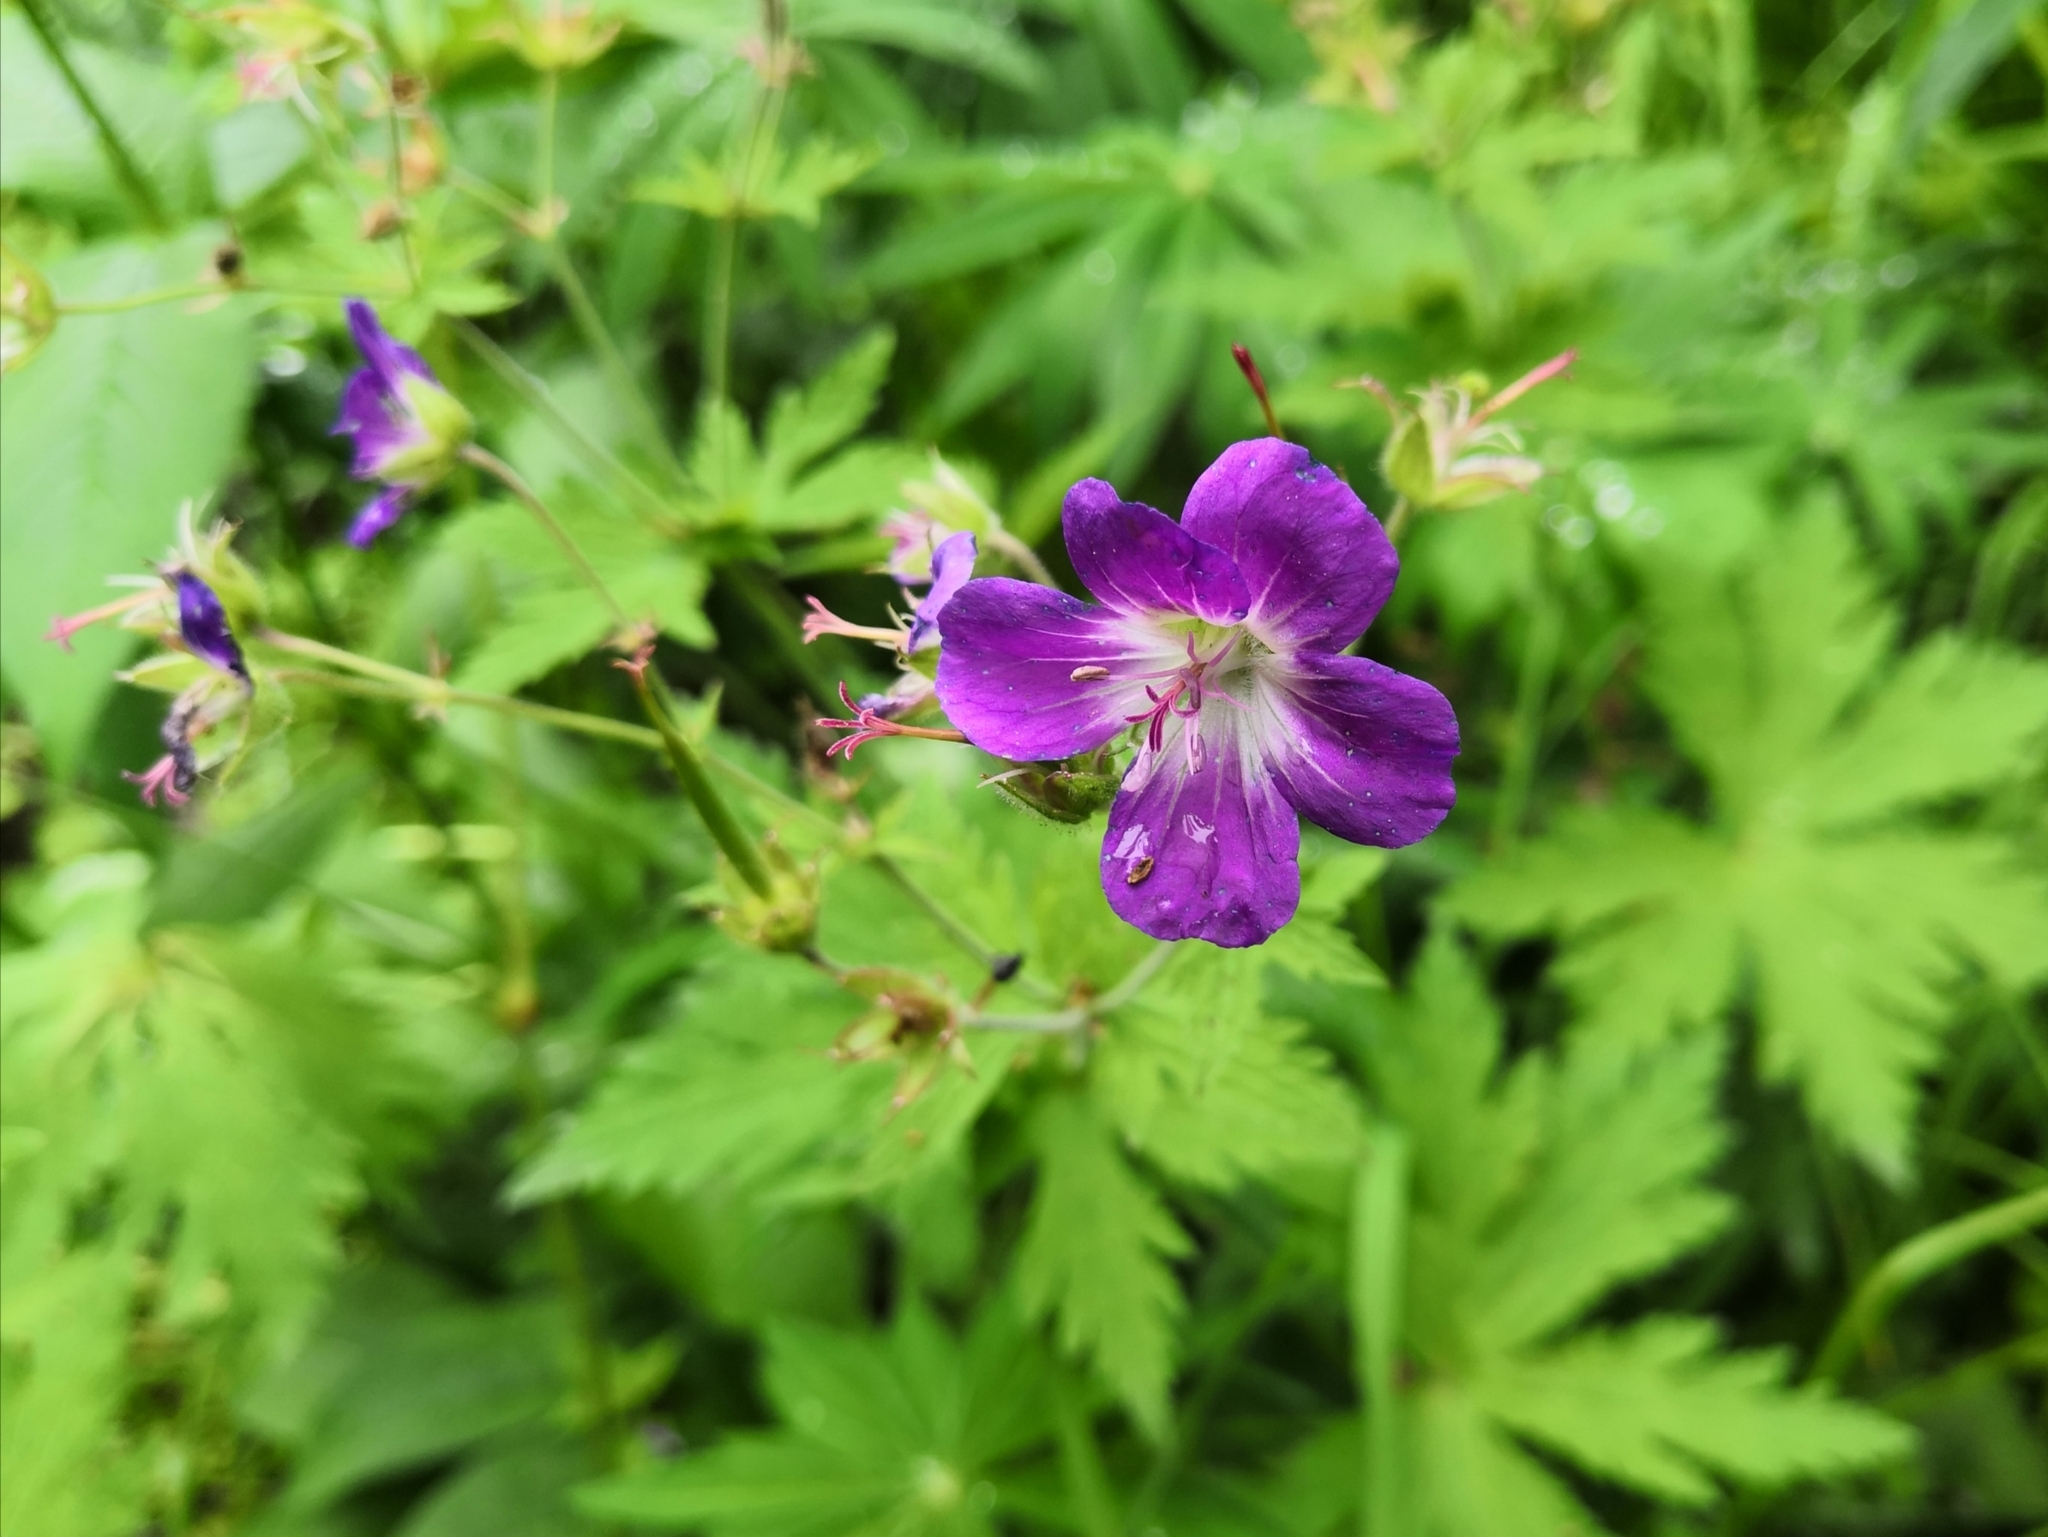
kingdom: Plantae
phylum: Tracheophyta
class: Magnoliopsida
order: Geraniales
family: Geraniaceae
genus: Geranium
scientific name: Geranium sylvaticum
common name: Wood crane's-bill
